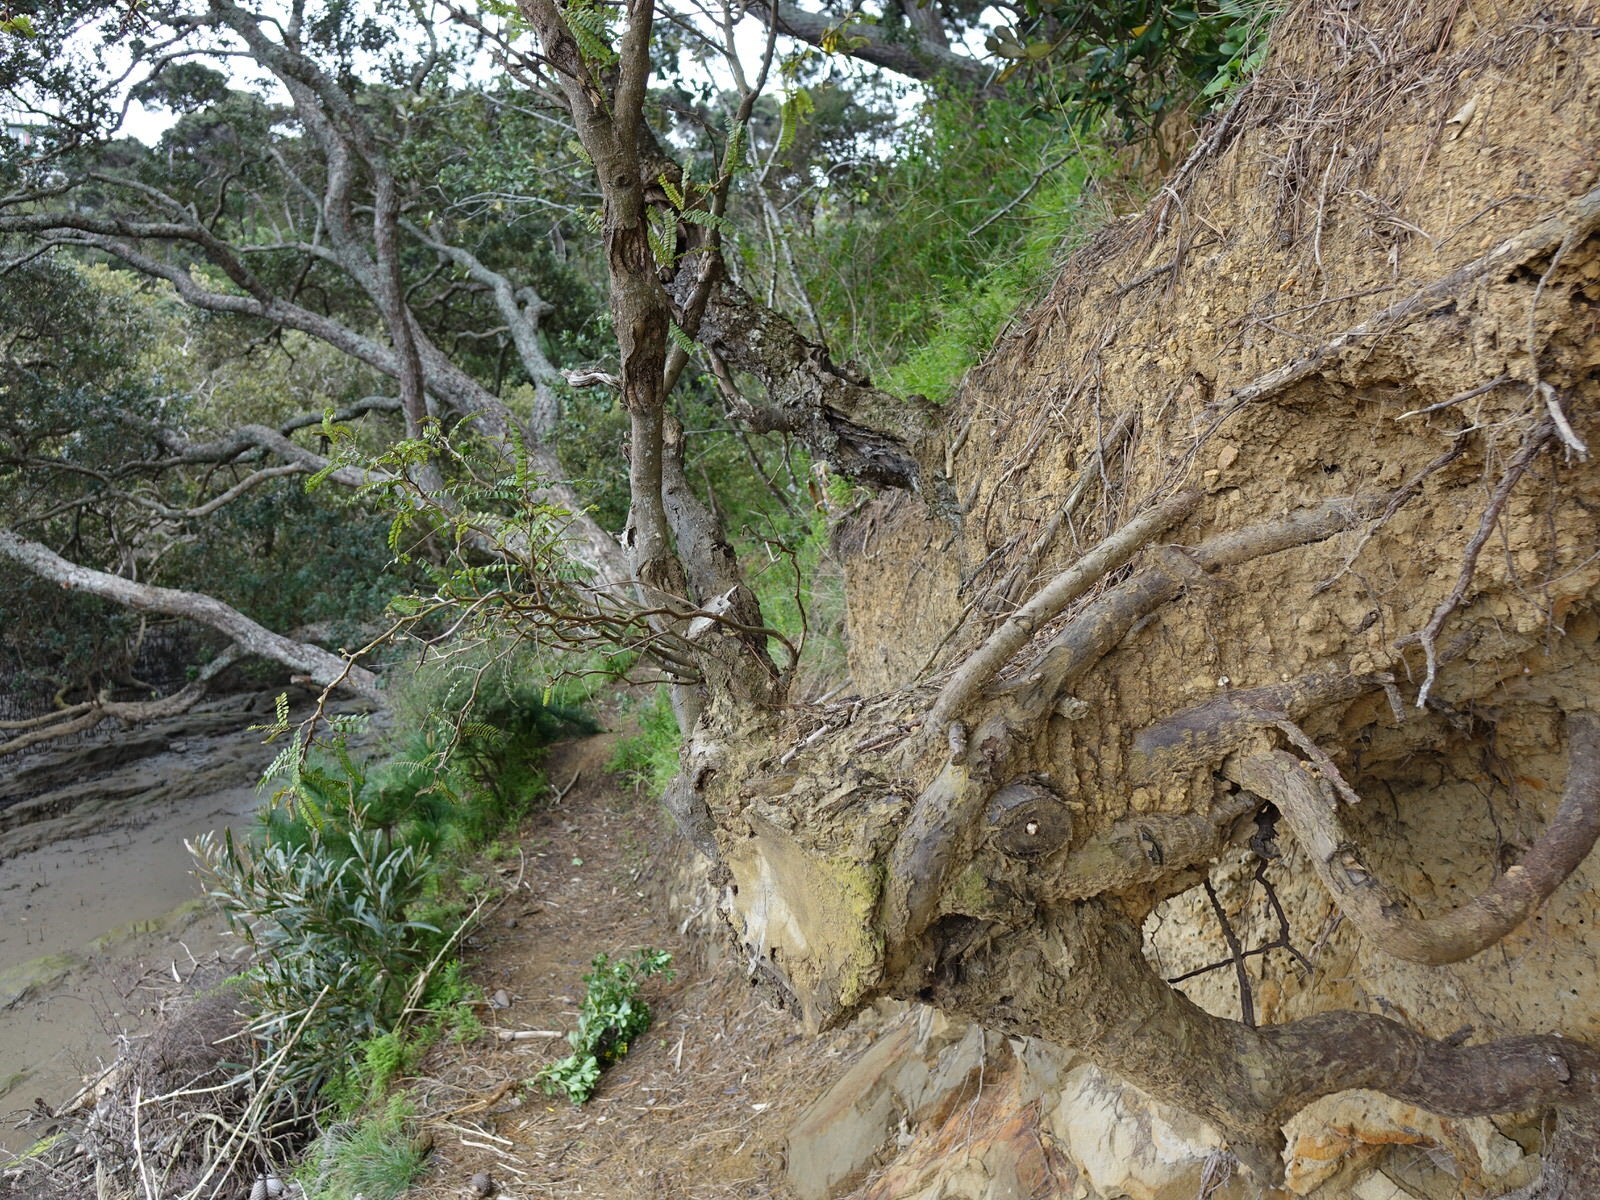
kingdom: Plantae
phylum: Tracheophyta
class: Magnoliopsida
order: Fabales
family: Fabaceae
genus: Sophora
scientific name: Sophora chathamica
